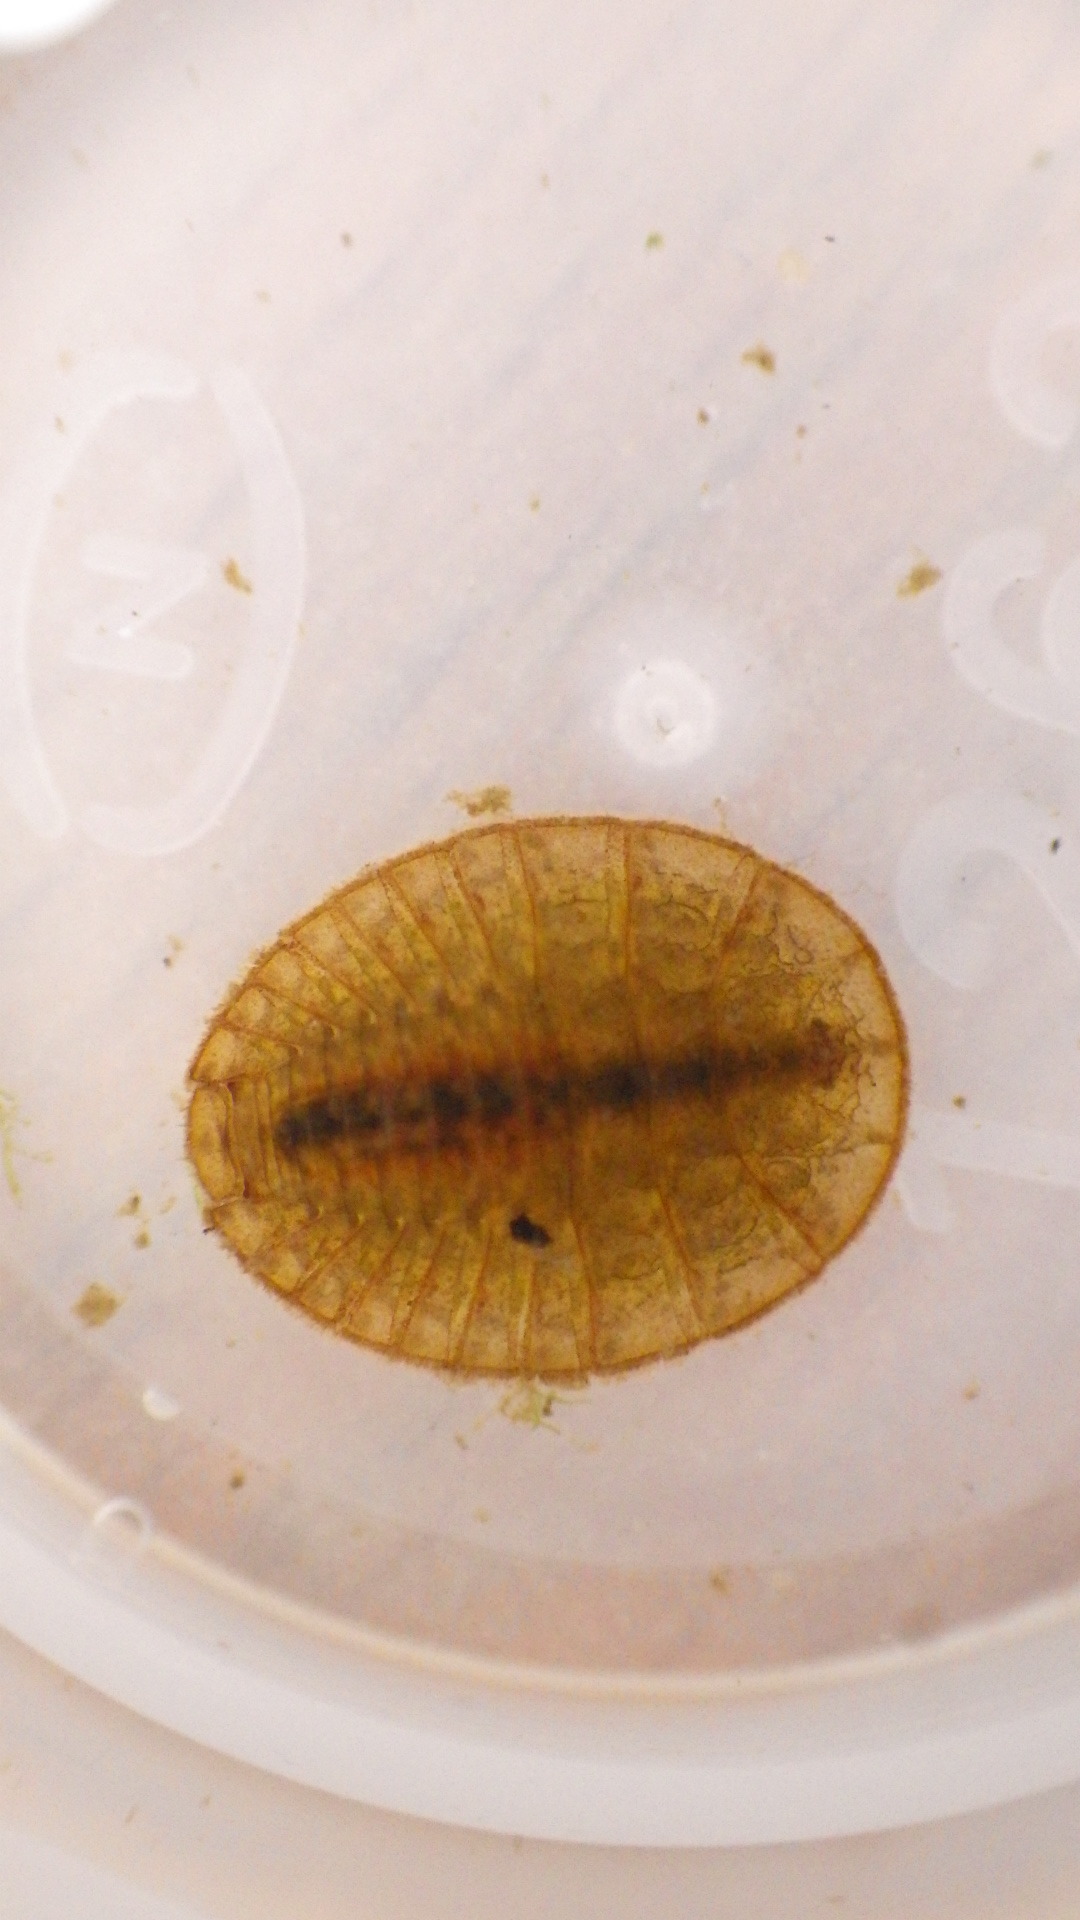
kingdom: Animalia
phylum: Arthropoda
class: Insecta
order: Coleoptera
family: Psephenidae
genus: Psephenus
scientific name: Psephenus herricki
